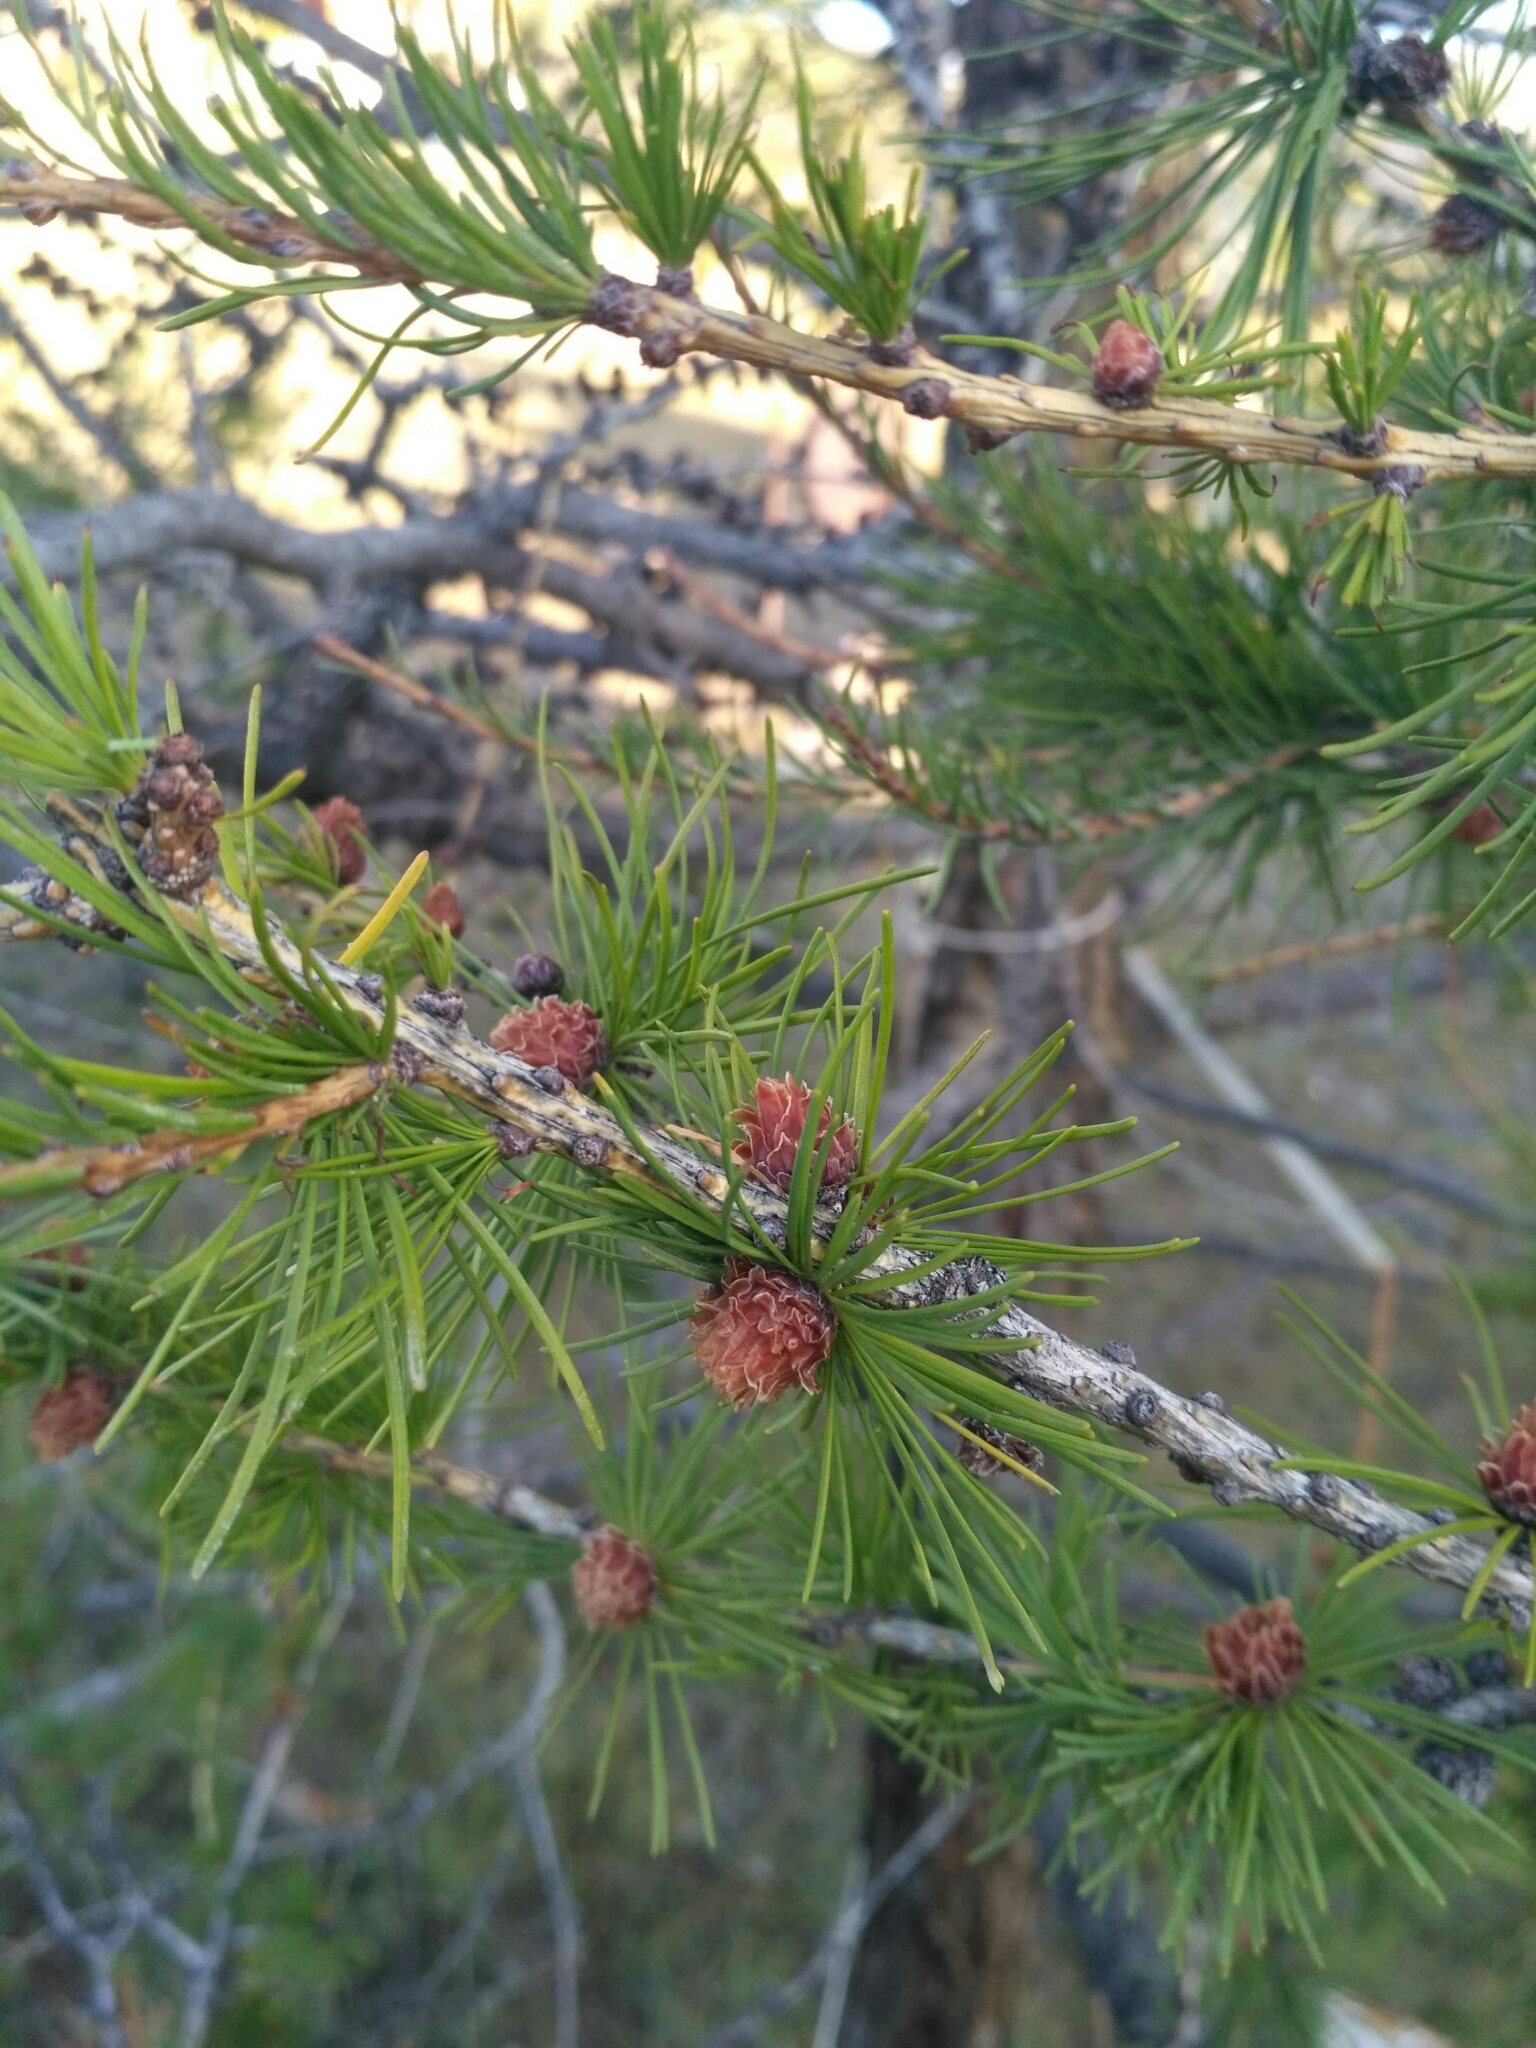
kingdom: Plantae
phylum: Tracheophyta
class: Pinopsida
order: Pinales
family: Pinaceae
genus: Larix
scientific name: Larix sibirica
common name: Siberian larch
